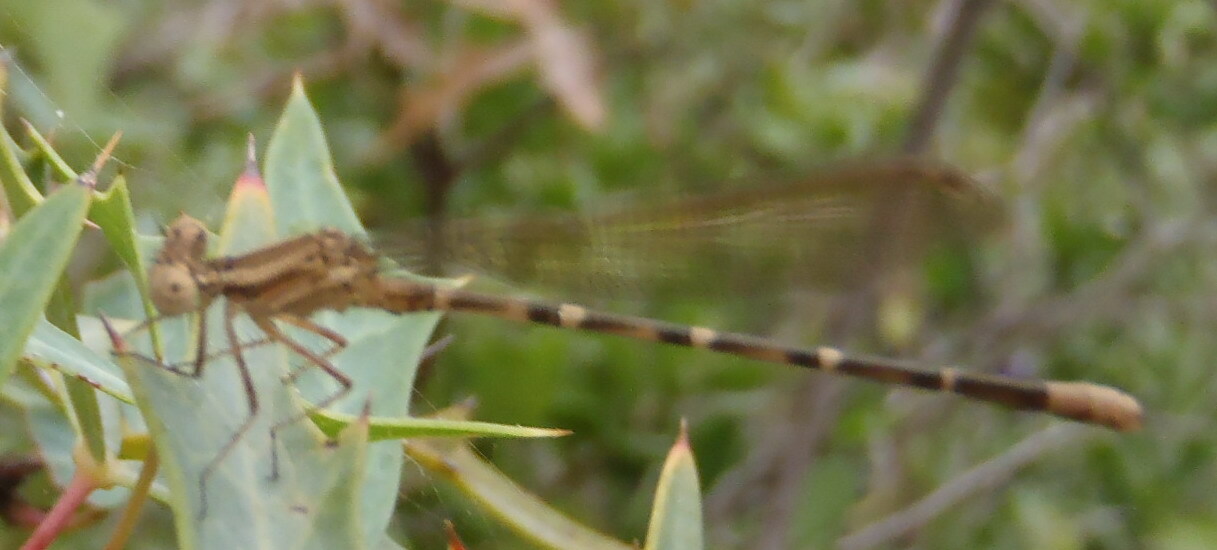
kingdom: Animalia
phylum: Arthropoda
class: Insecta
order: Odonata
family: Coenagrionidae
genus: Argia
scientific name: Argia sedula
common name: Blue-ringed dancer
